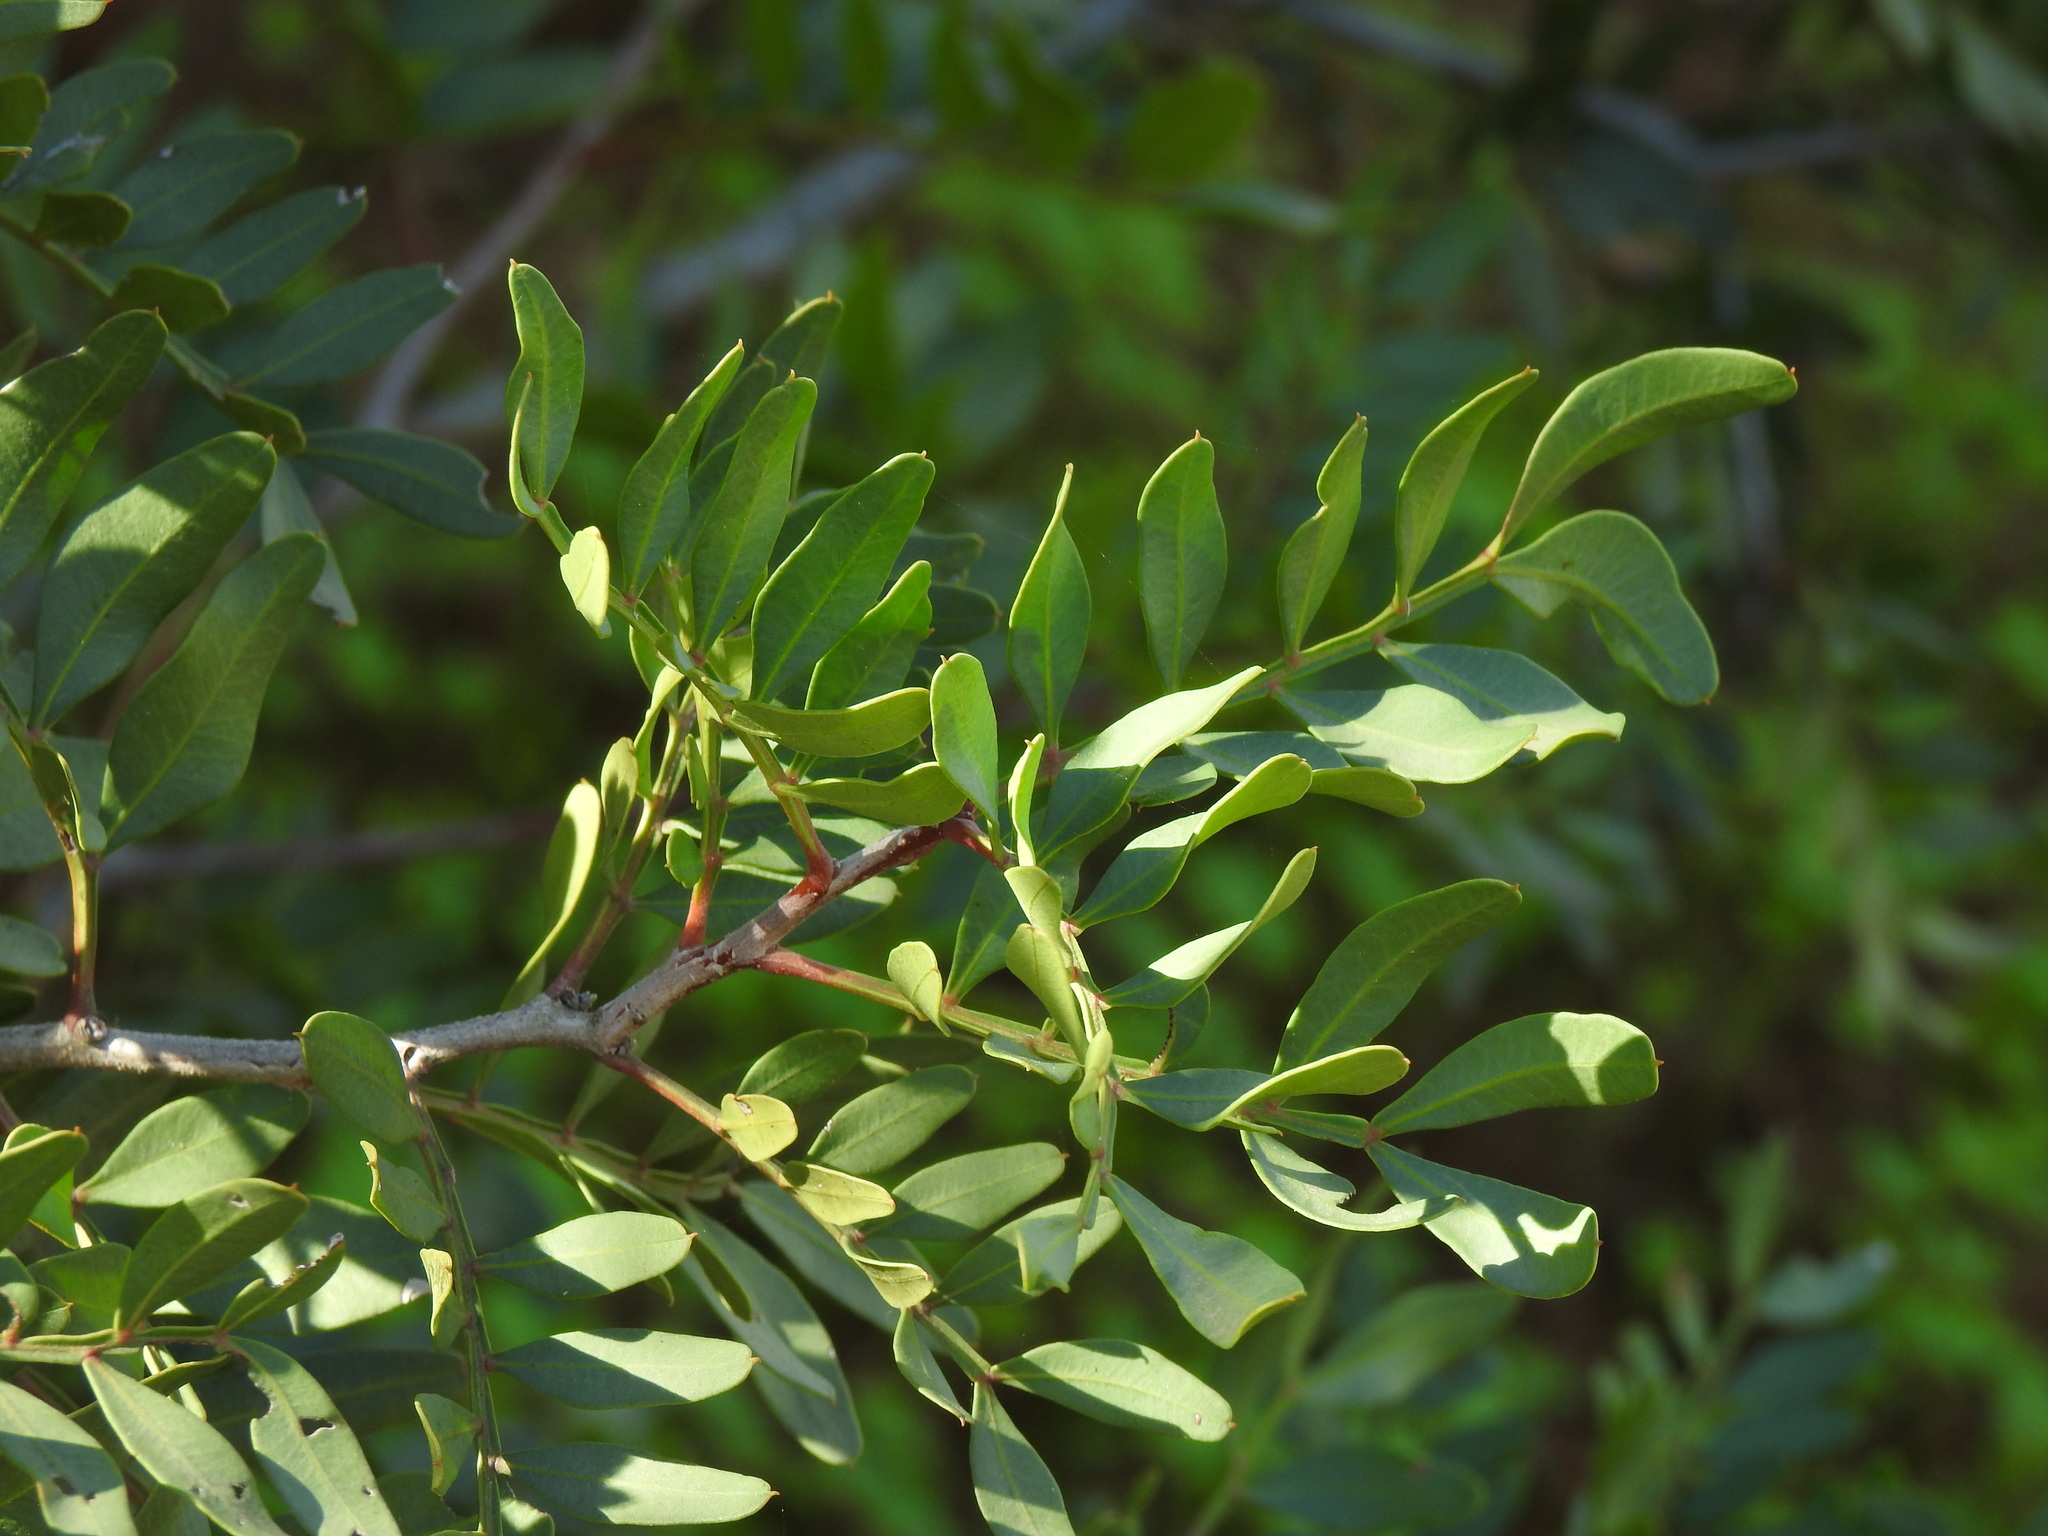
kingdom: Plantae
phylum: Tracheophyta
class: Magnoliopsida
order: Sapindales
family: Anacardiaceae
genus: Pistacia
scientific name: Pistacia lentiscus
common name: Lentisk
